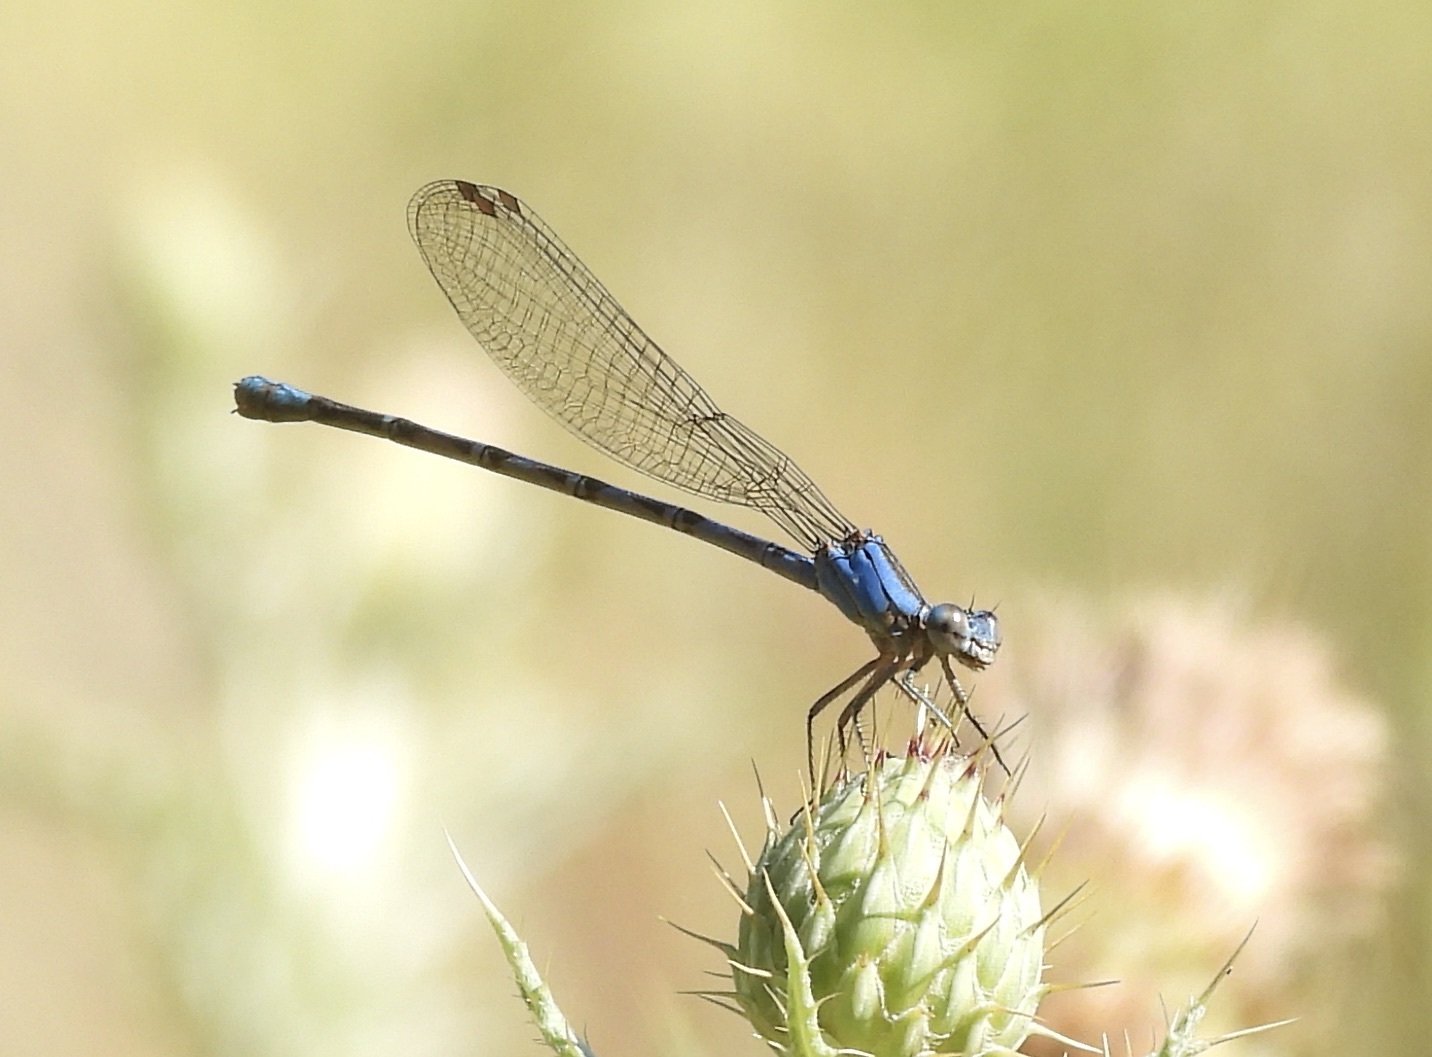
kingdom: Animalia
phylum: Arthropoda
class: Insecta
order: Odonata
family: Coenagrionidae
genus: Argia
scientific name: Argia funebris
